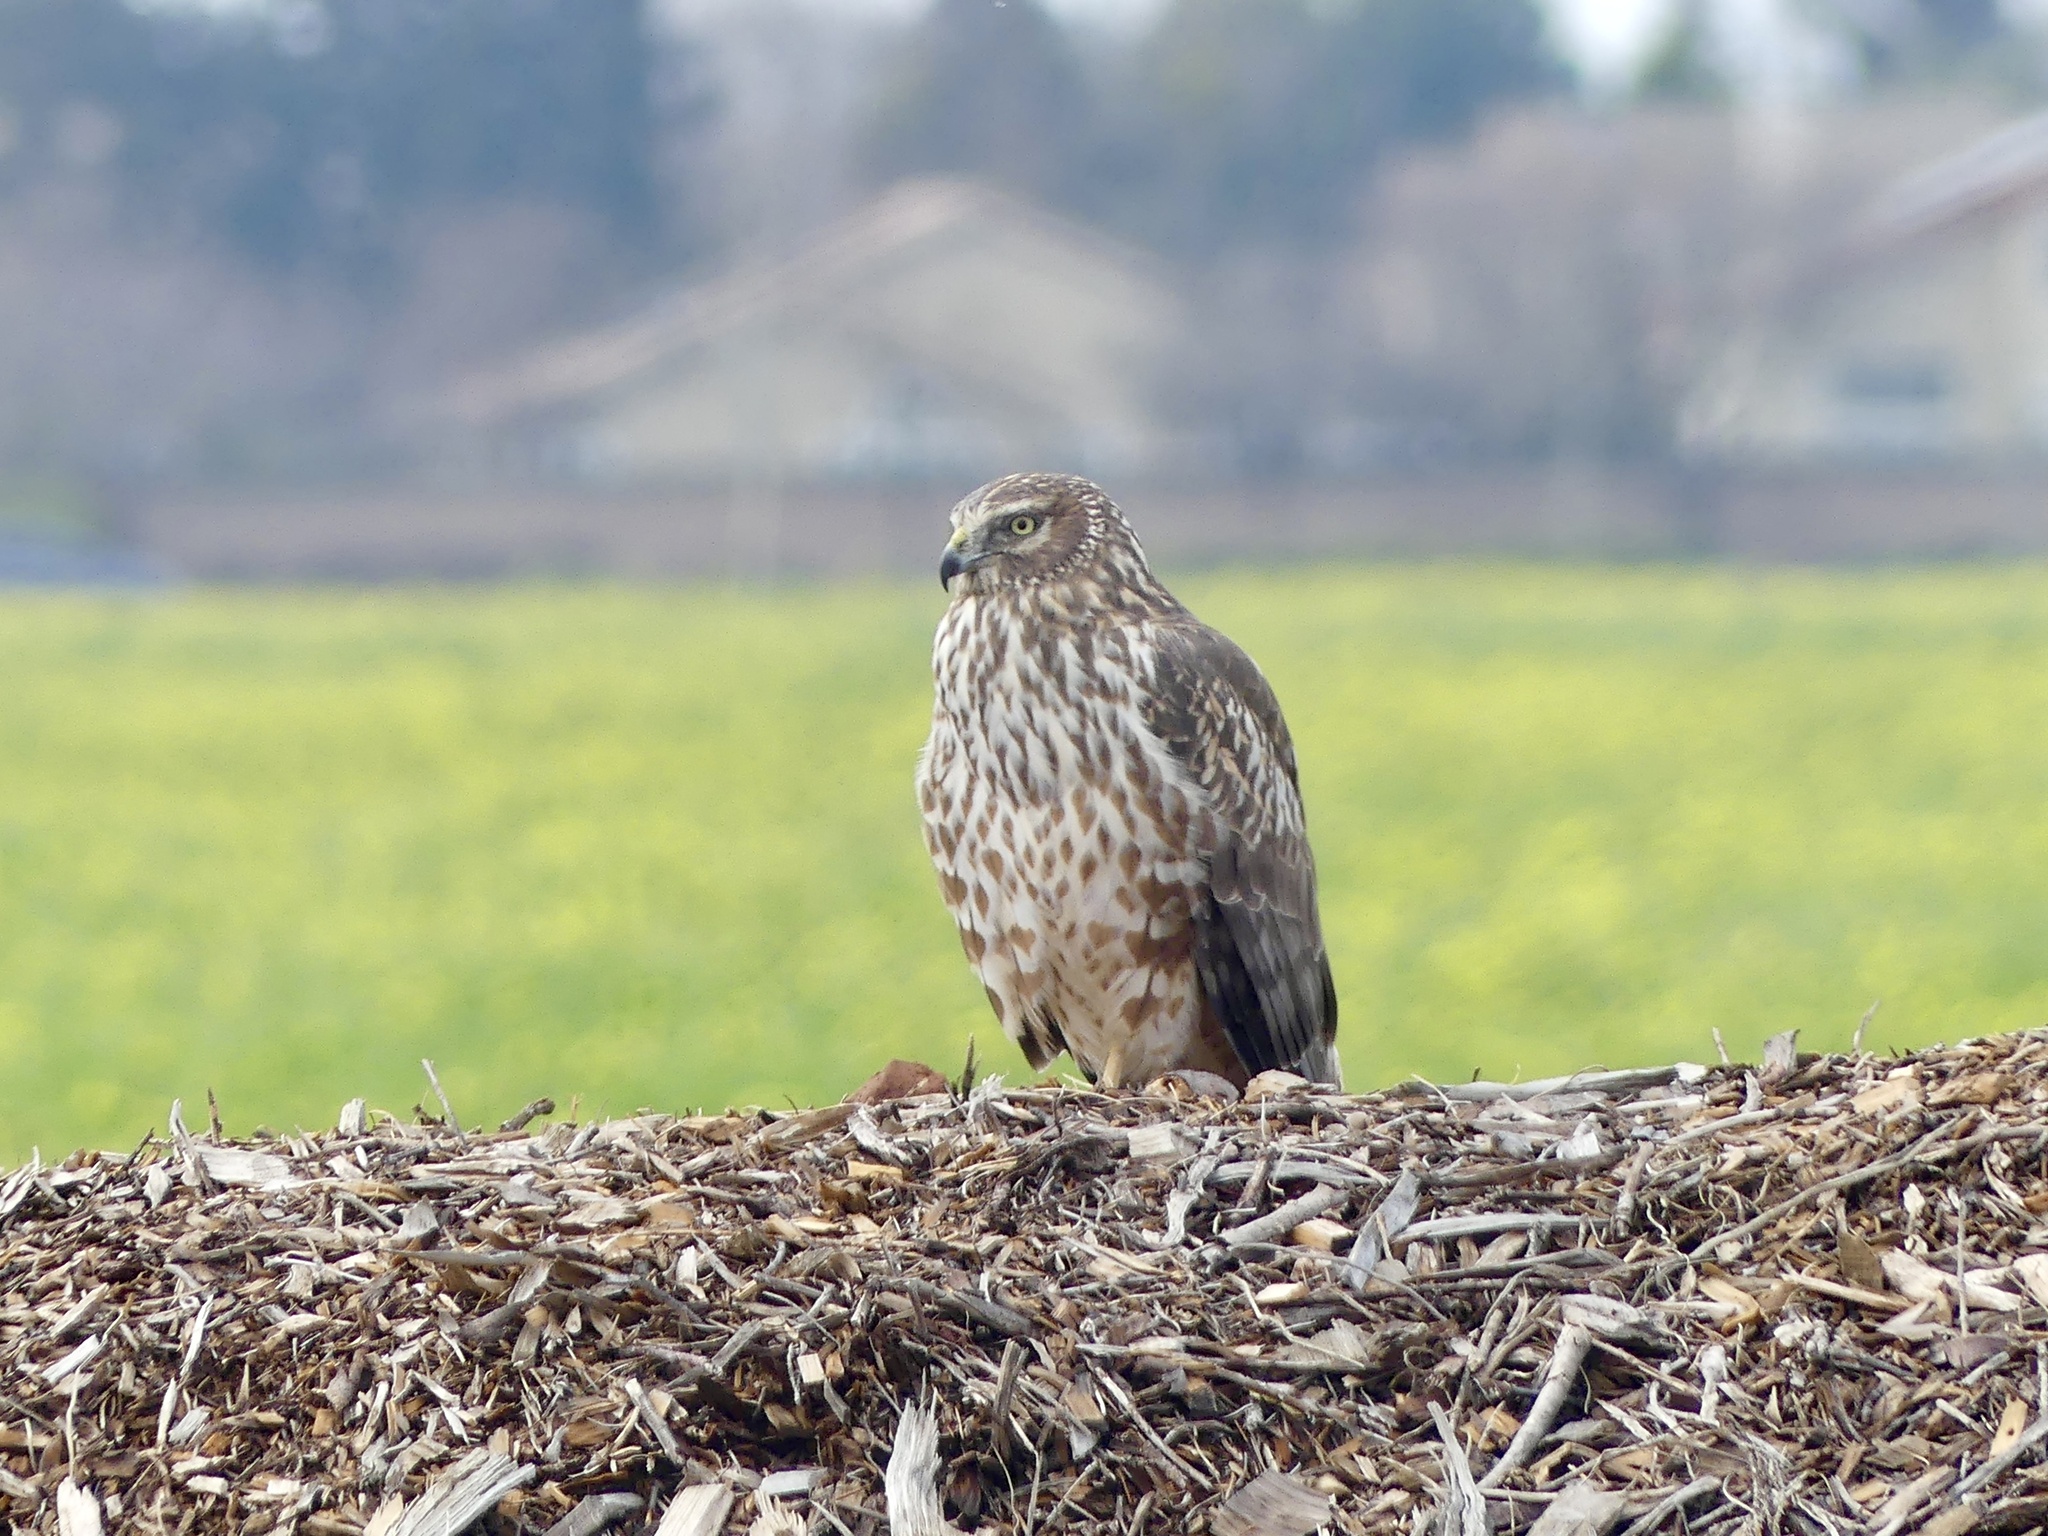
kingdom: Animalia
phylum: Chordata
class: Aves
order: Accipitriformes
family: Accipitridae
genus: Circus
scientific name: Circus cyaneus
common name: Hen harrier
